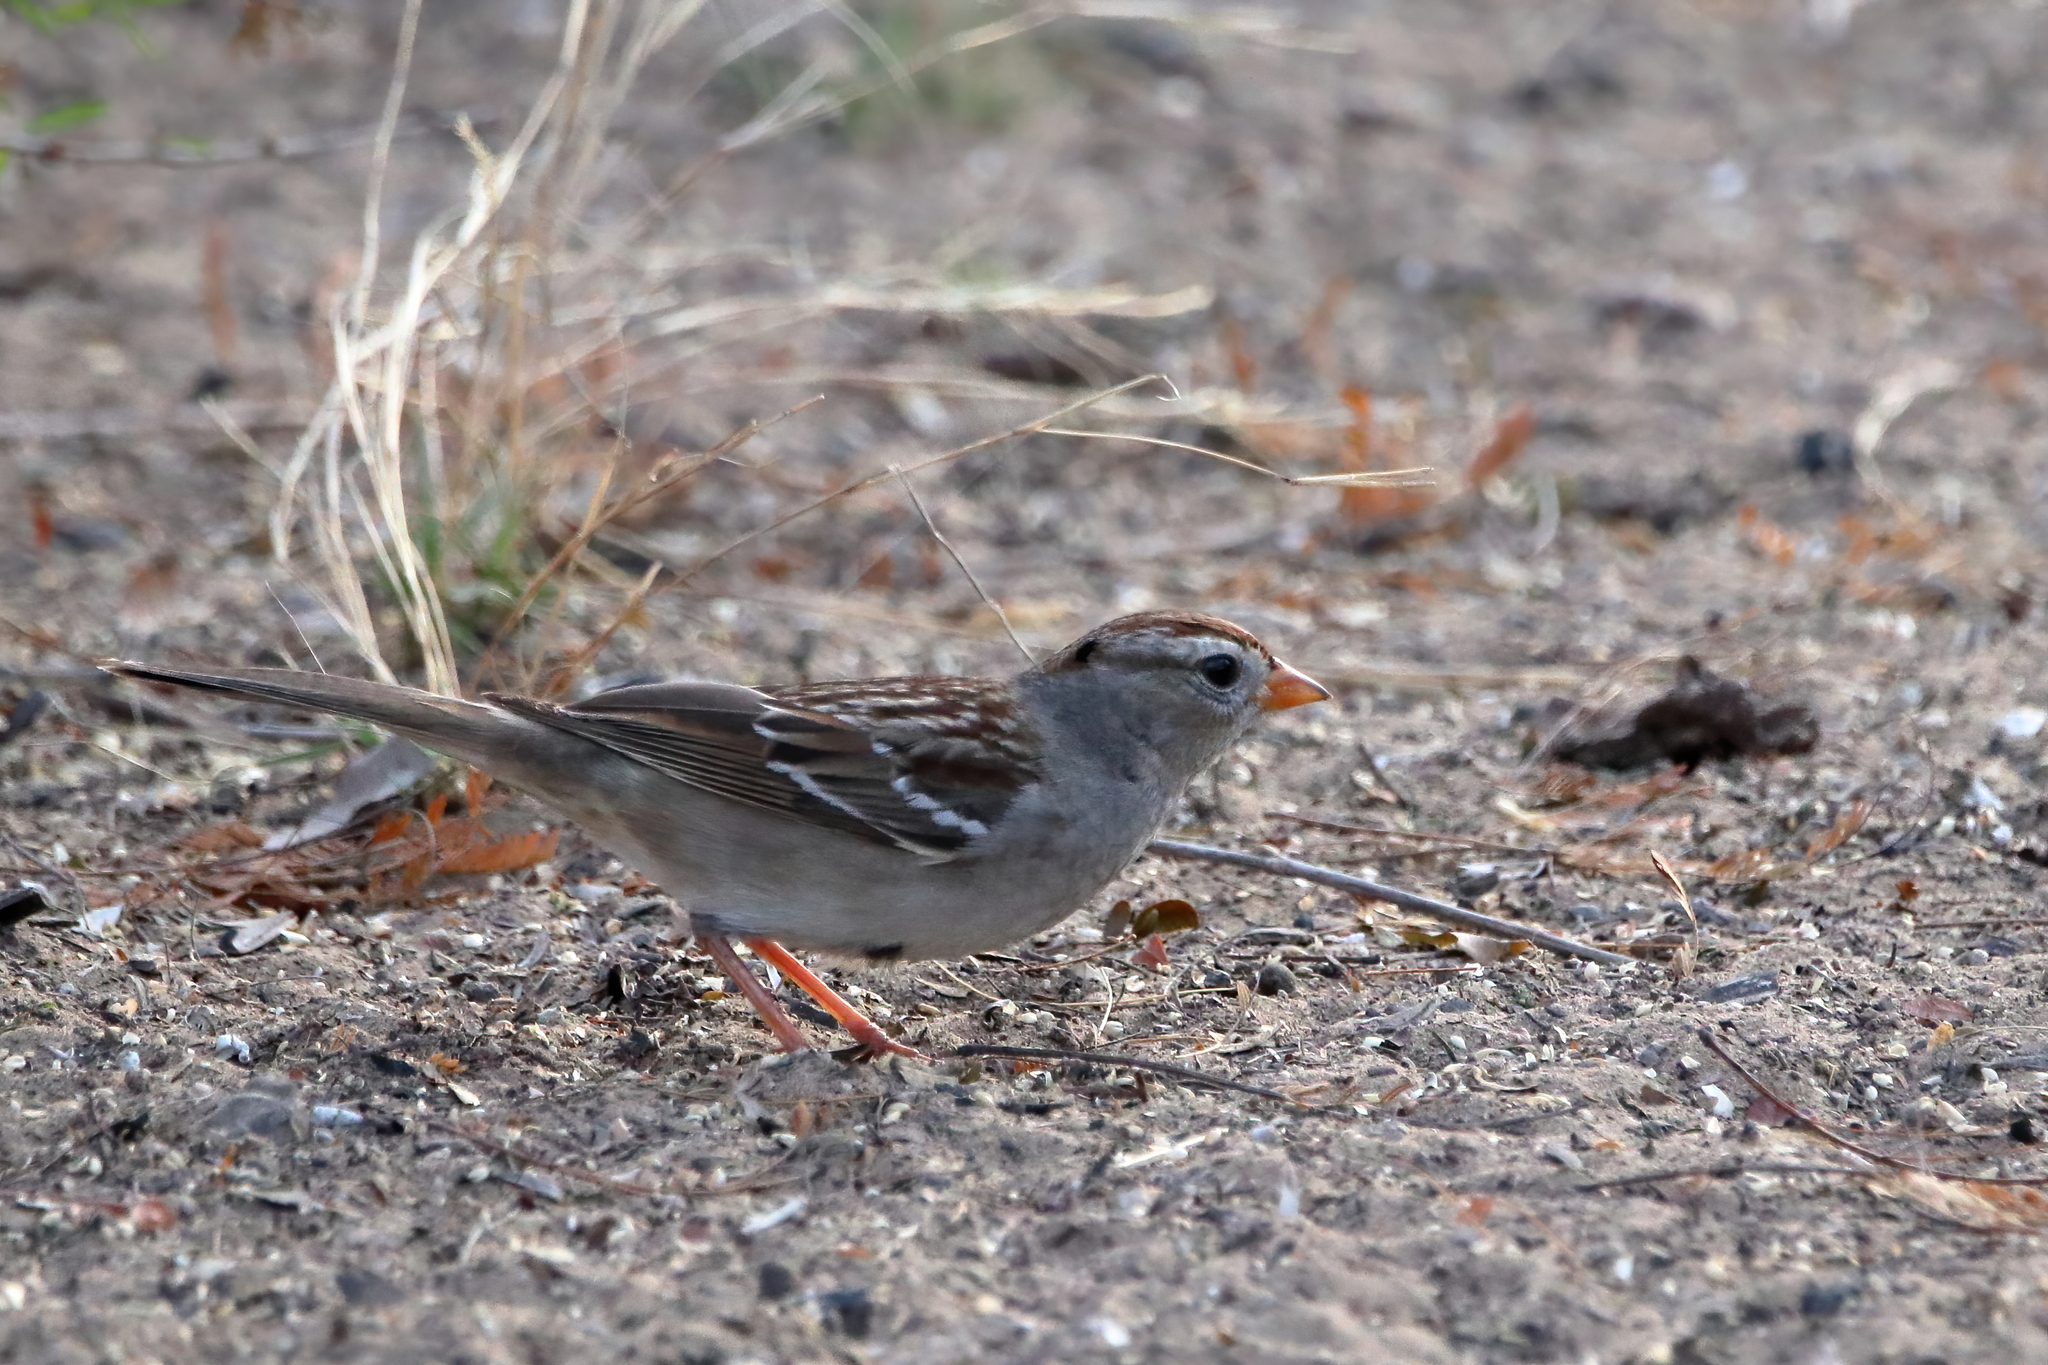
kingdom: Animalia
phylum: Chordata
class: Aves
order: Passeriformes
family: Passerellidae
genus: Zonotrichia
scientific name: Zonotrichia leucophrys
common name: White-crowned sparrow
